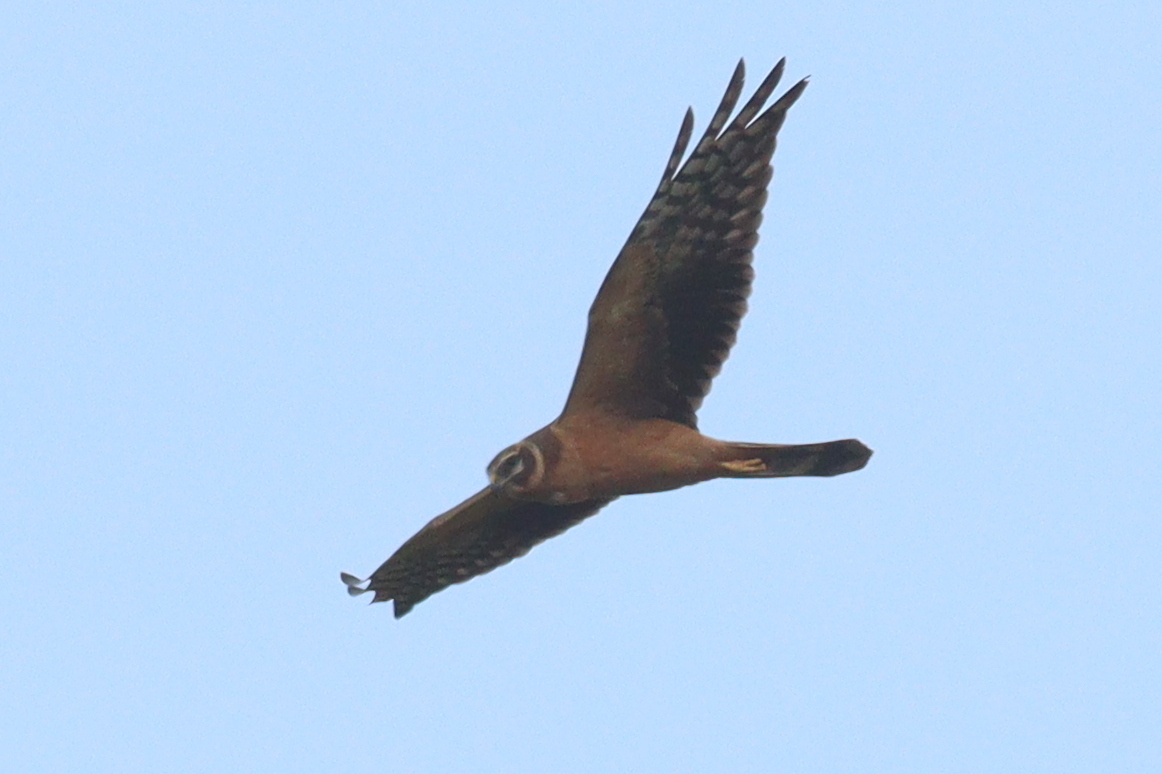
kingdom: Animalia
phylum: Chordata
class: Aves
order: Accipitriformes
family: Accipitridae
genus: Circus
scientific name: Circus macrourus
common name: Pallid harrier
